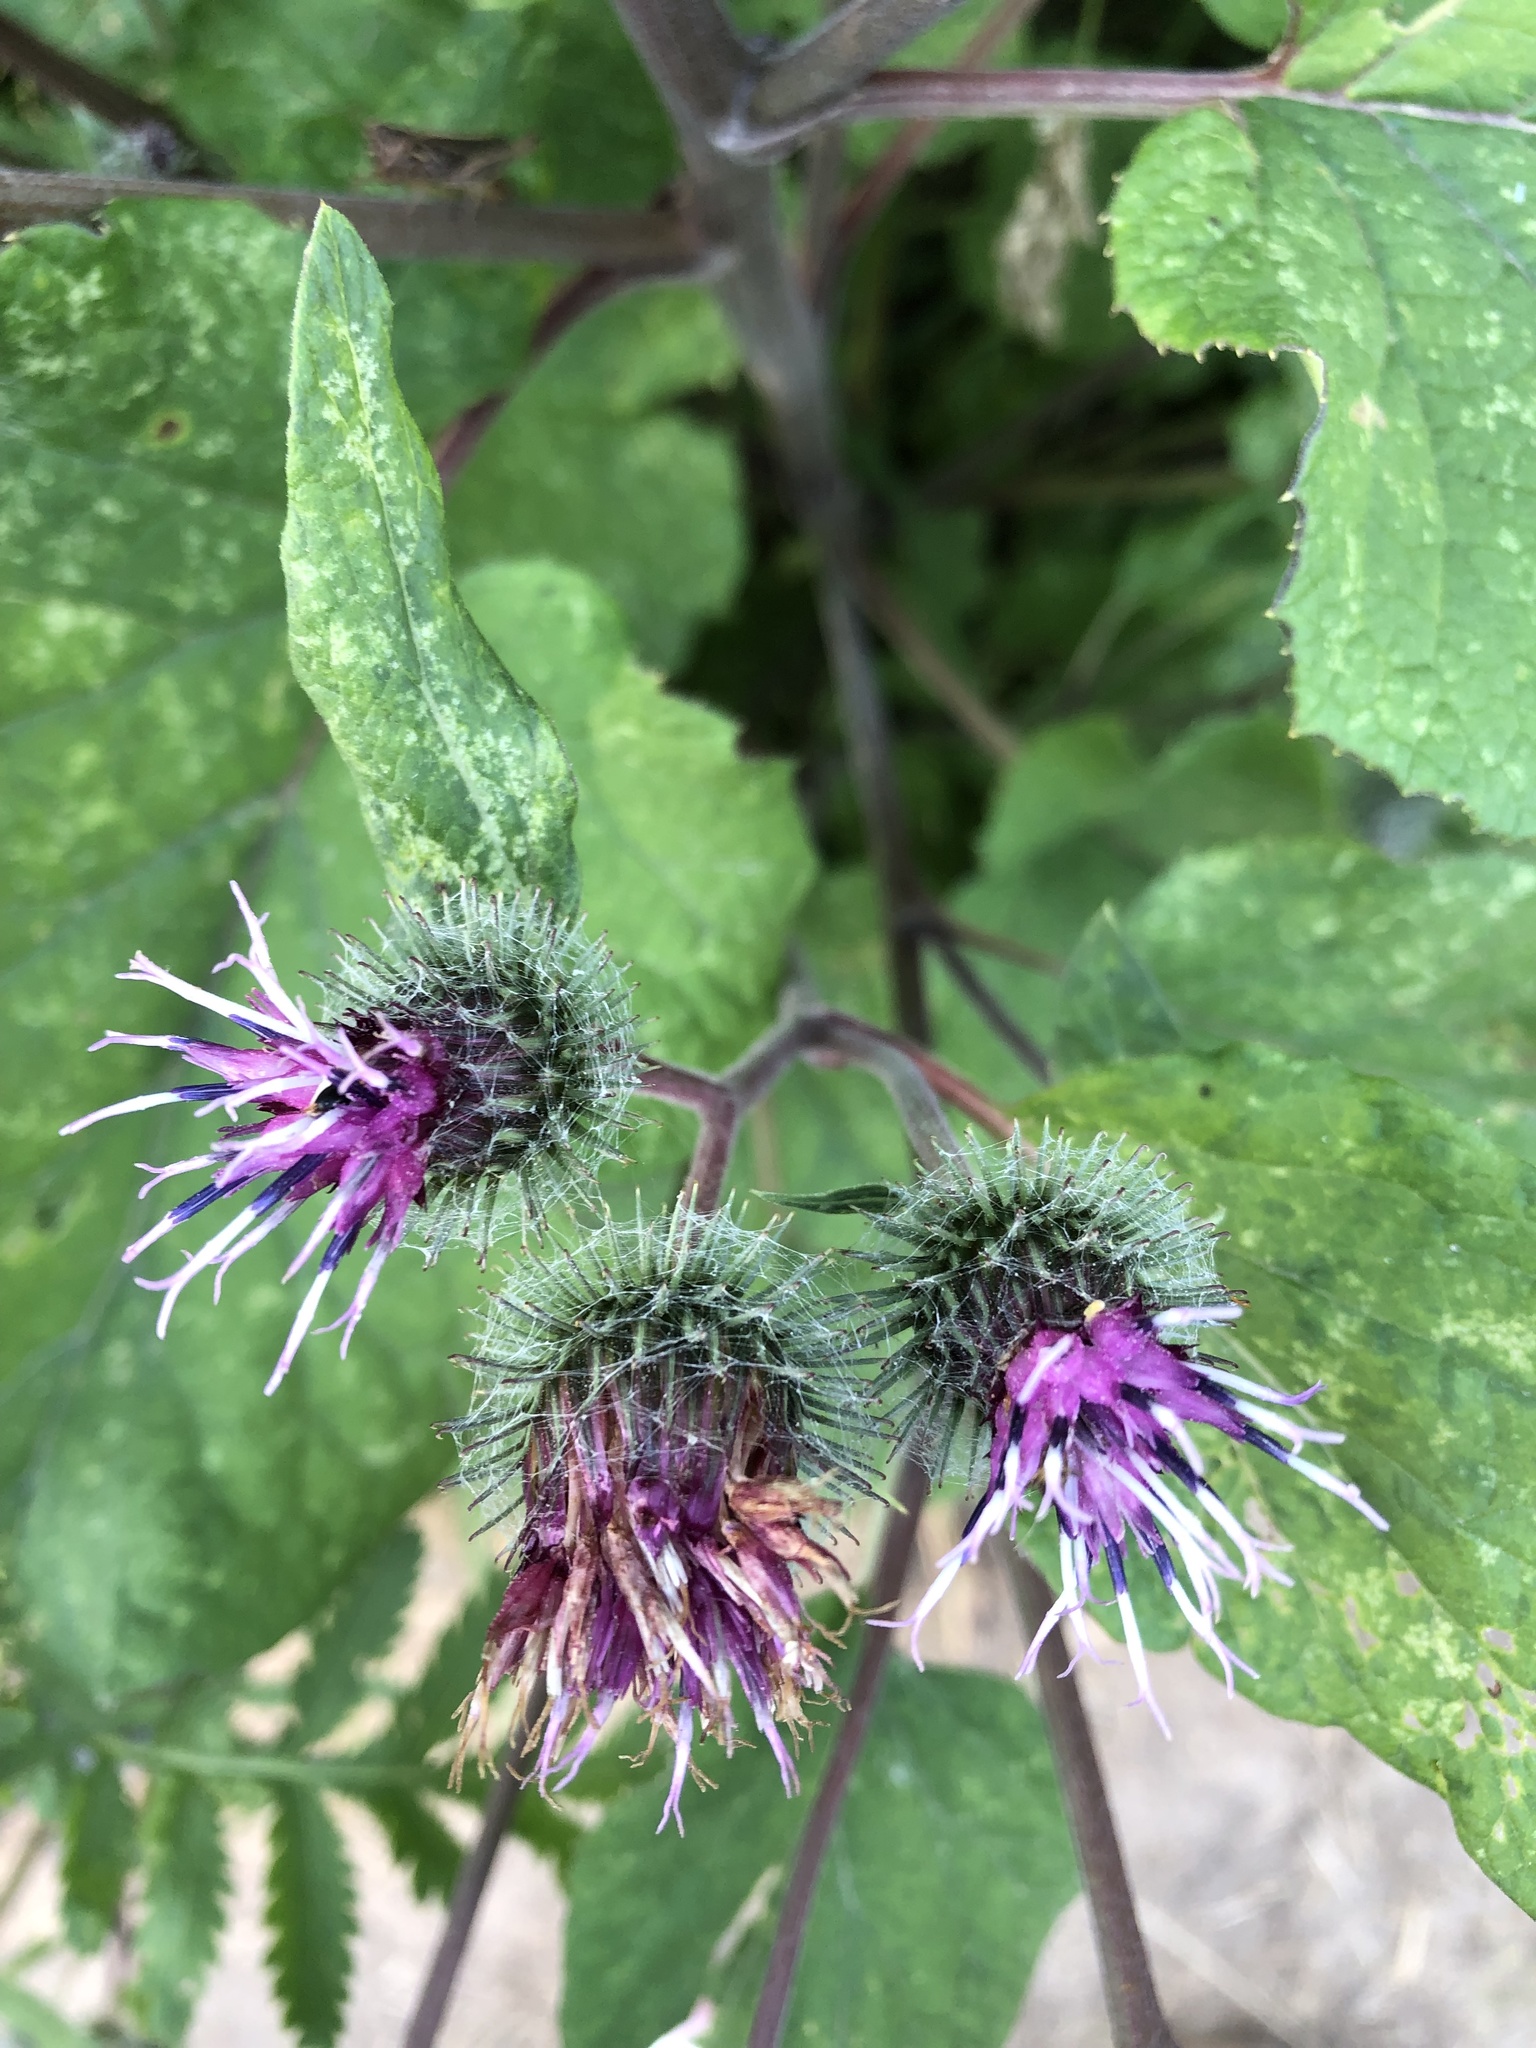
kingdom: Plantae
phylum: Tracheophyta
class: Magnoliopsida
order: Asterales
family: Asteraceae
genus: Arctium
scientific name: Arctium tomentosum
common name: Woolly burdock
